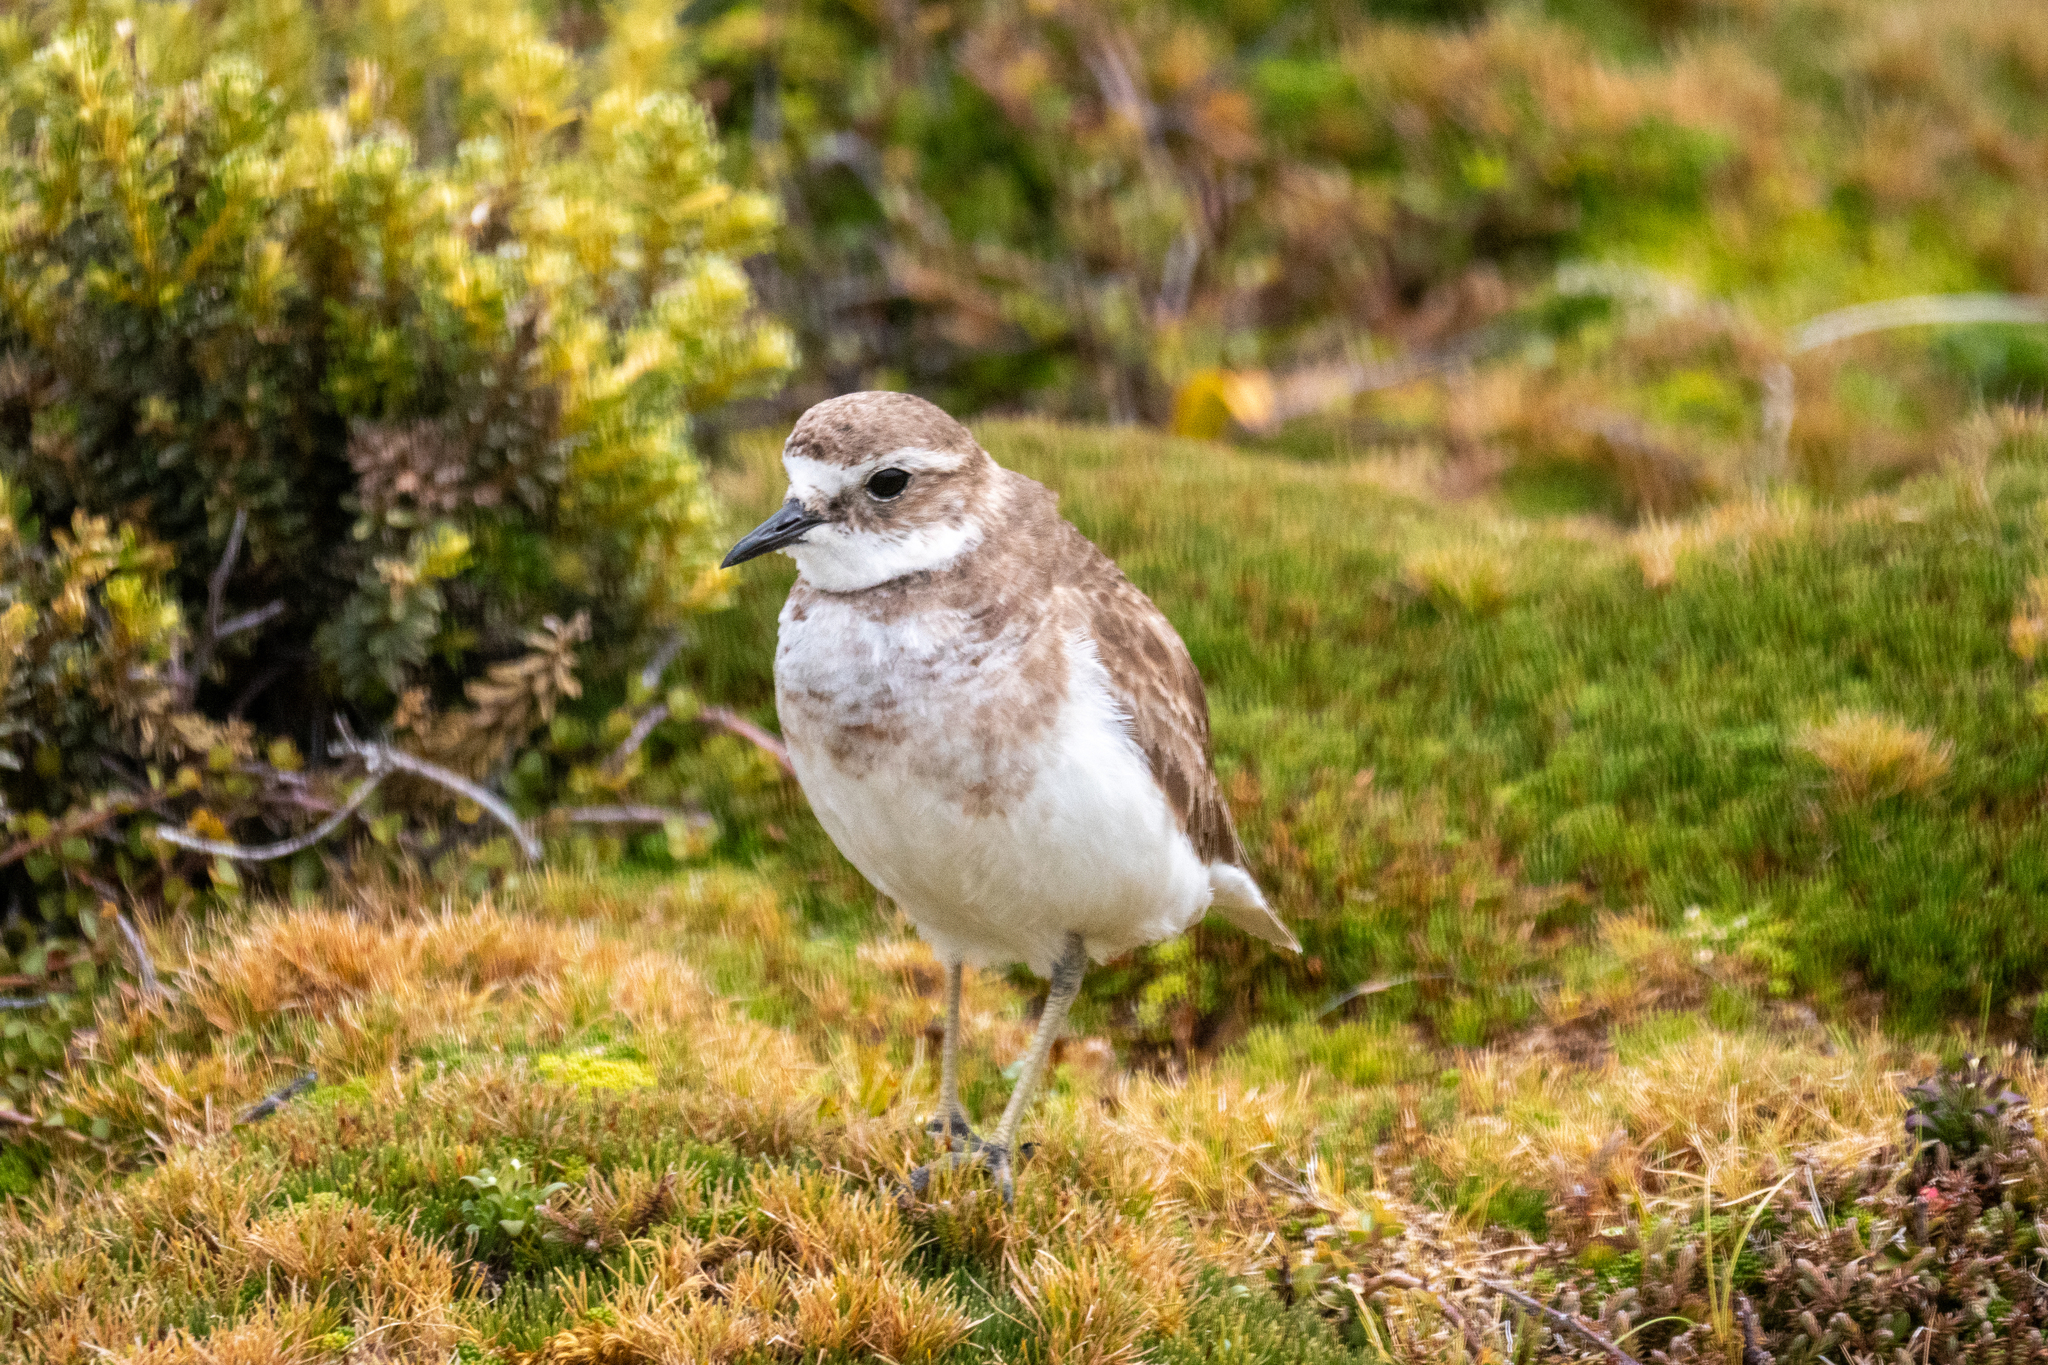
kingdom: Animalia
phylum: Chordata
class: Aves
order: Charadriiformes
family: Charadriidae
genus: Anarhynchus
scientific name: Anarhynchus
